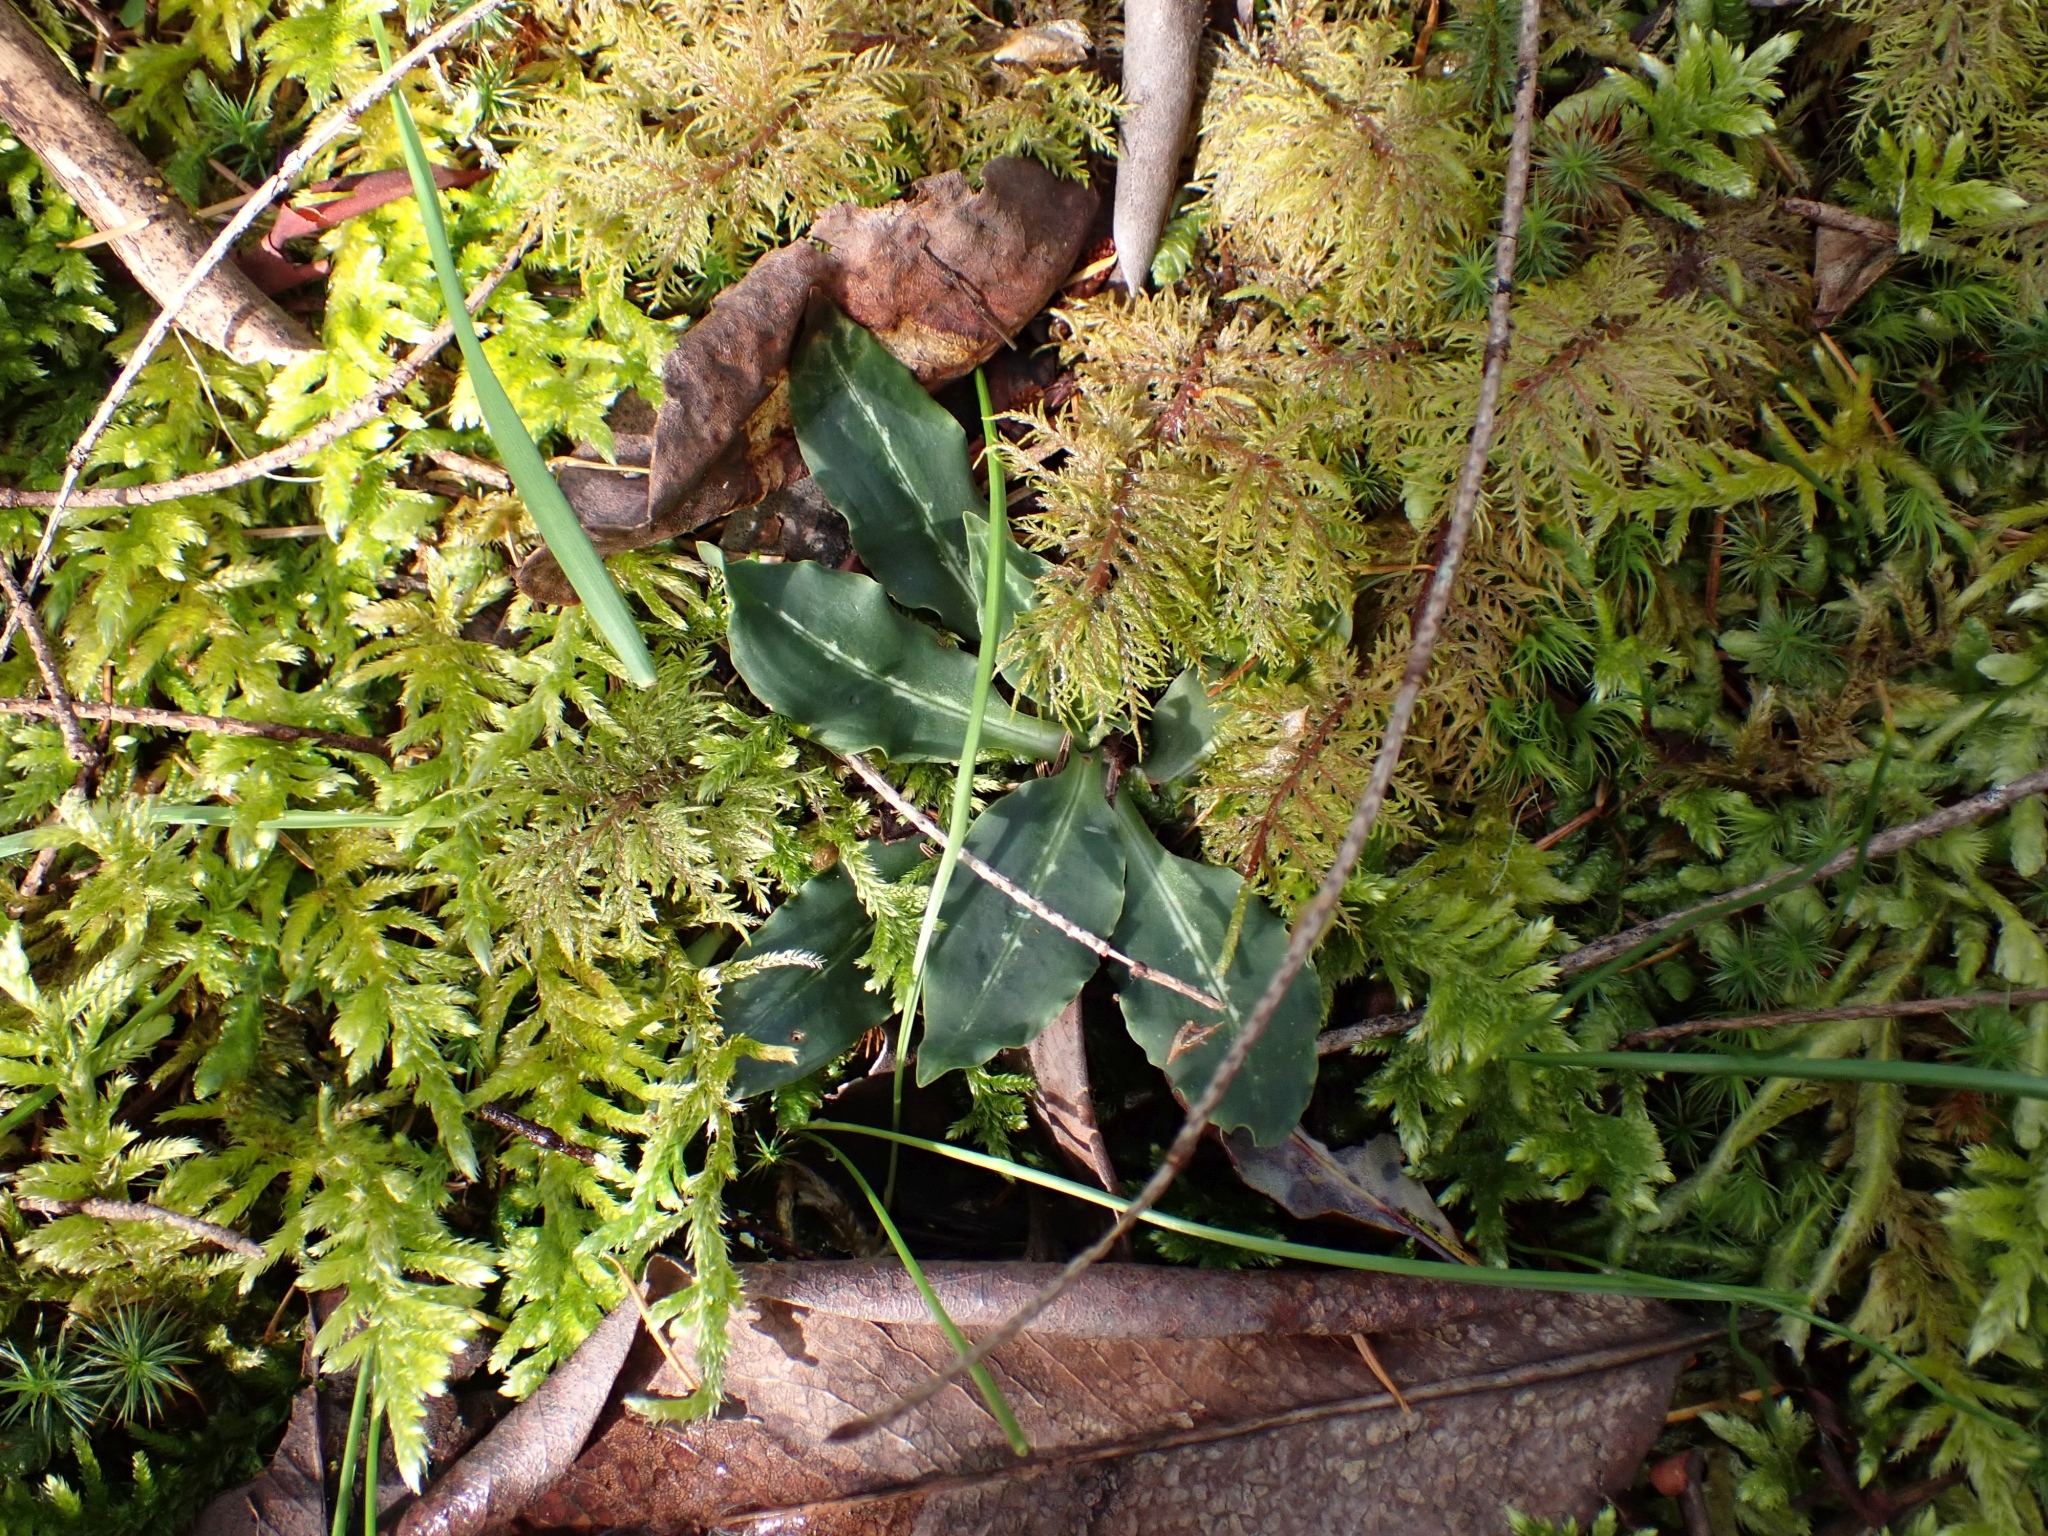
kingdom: Plantae
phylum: Tracheophyta
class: Liliopsida
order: Asparagales
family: Orchidaceae
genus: Goodyera
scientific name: Goodyera oblongifolia
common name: Giant rattlesnake-plantain
